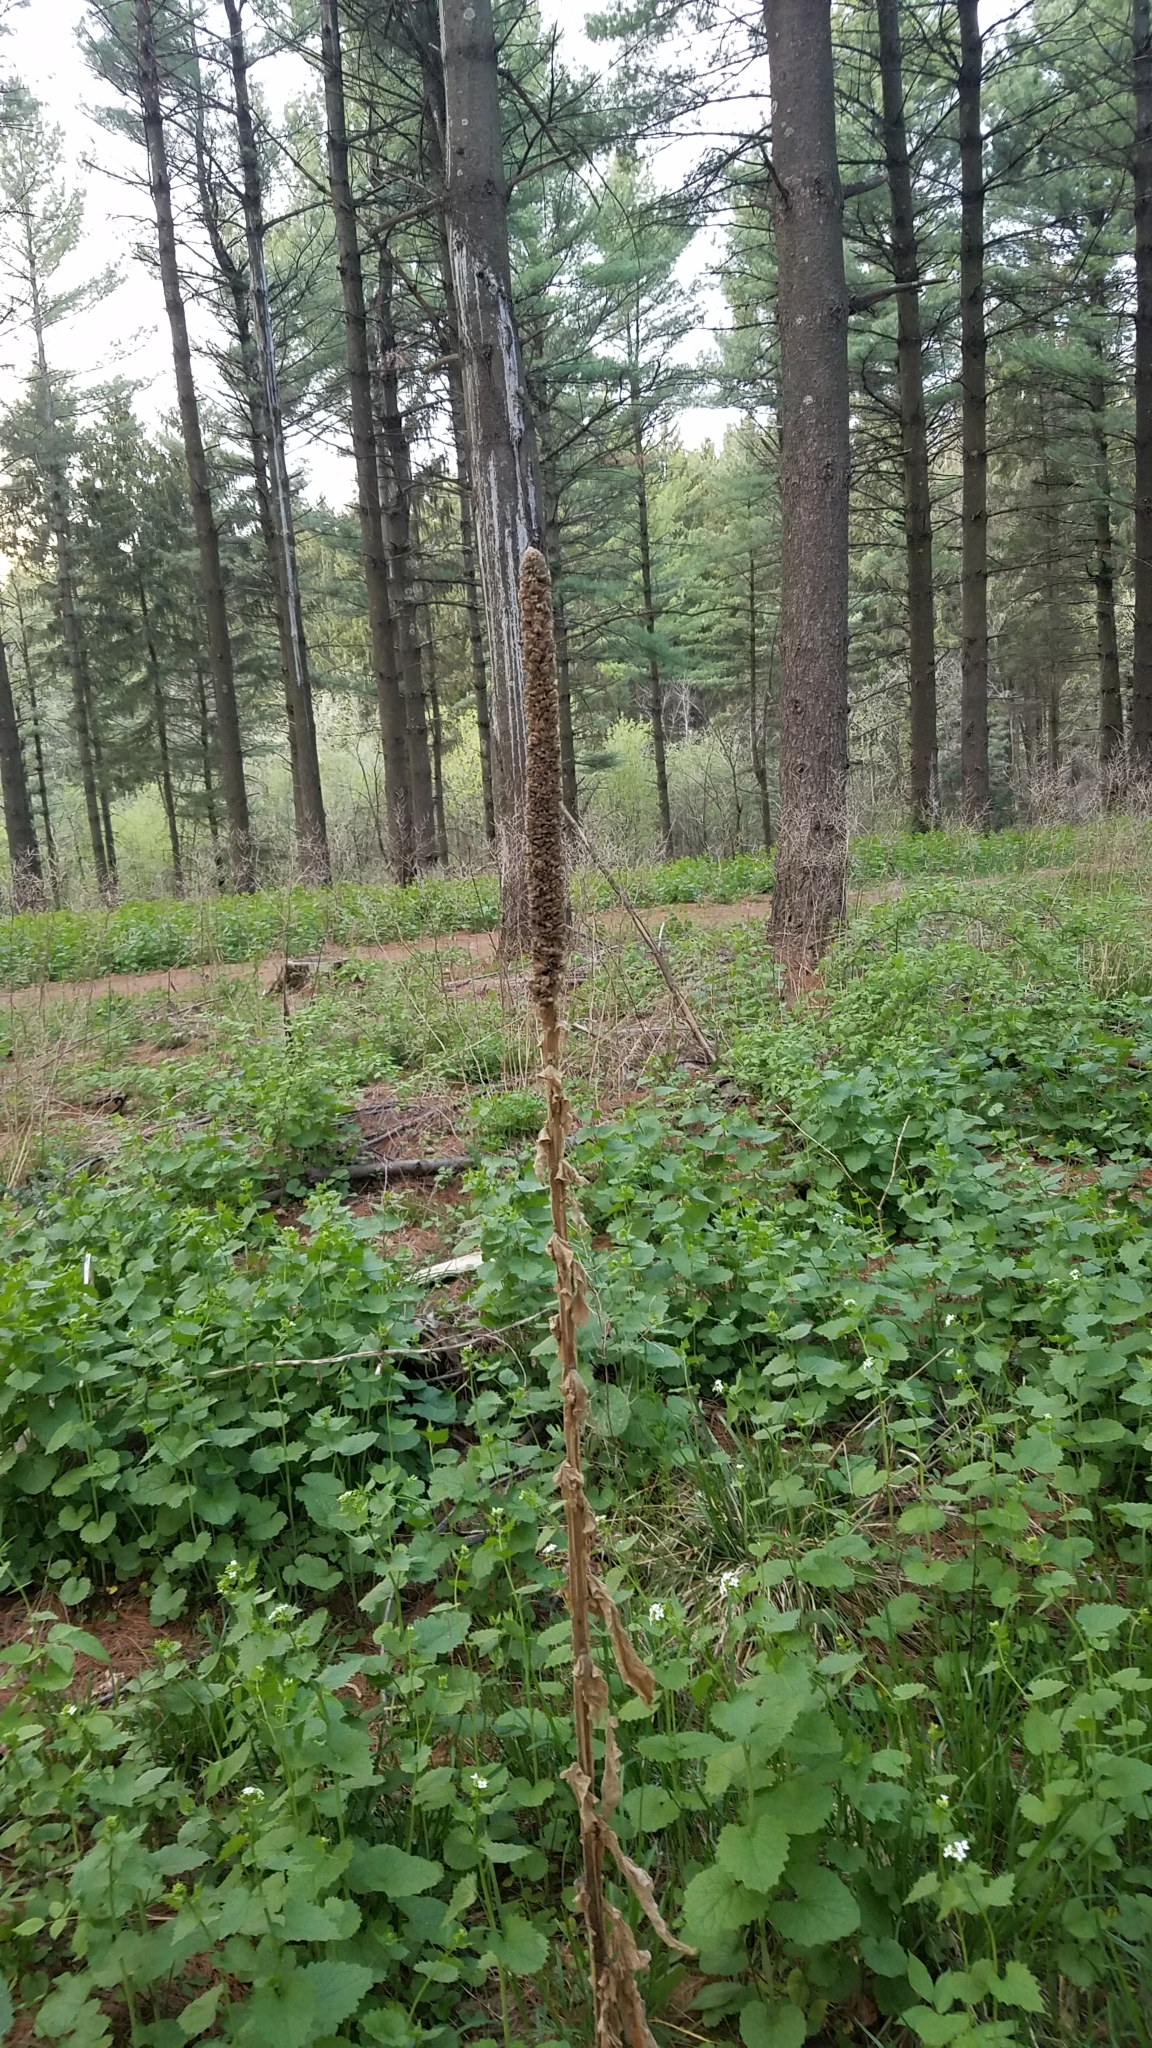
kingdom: Plantae
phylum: Tracheophyta
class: Magnoliopsida
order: Lamiales
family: Scrophulariaceae
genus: Verbascum
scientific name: Verbascum thapsus
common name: Common mullein
